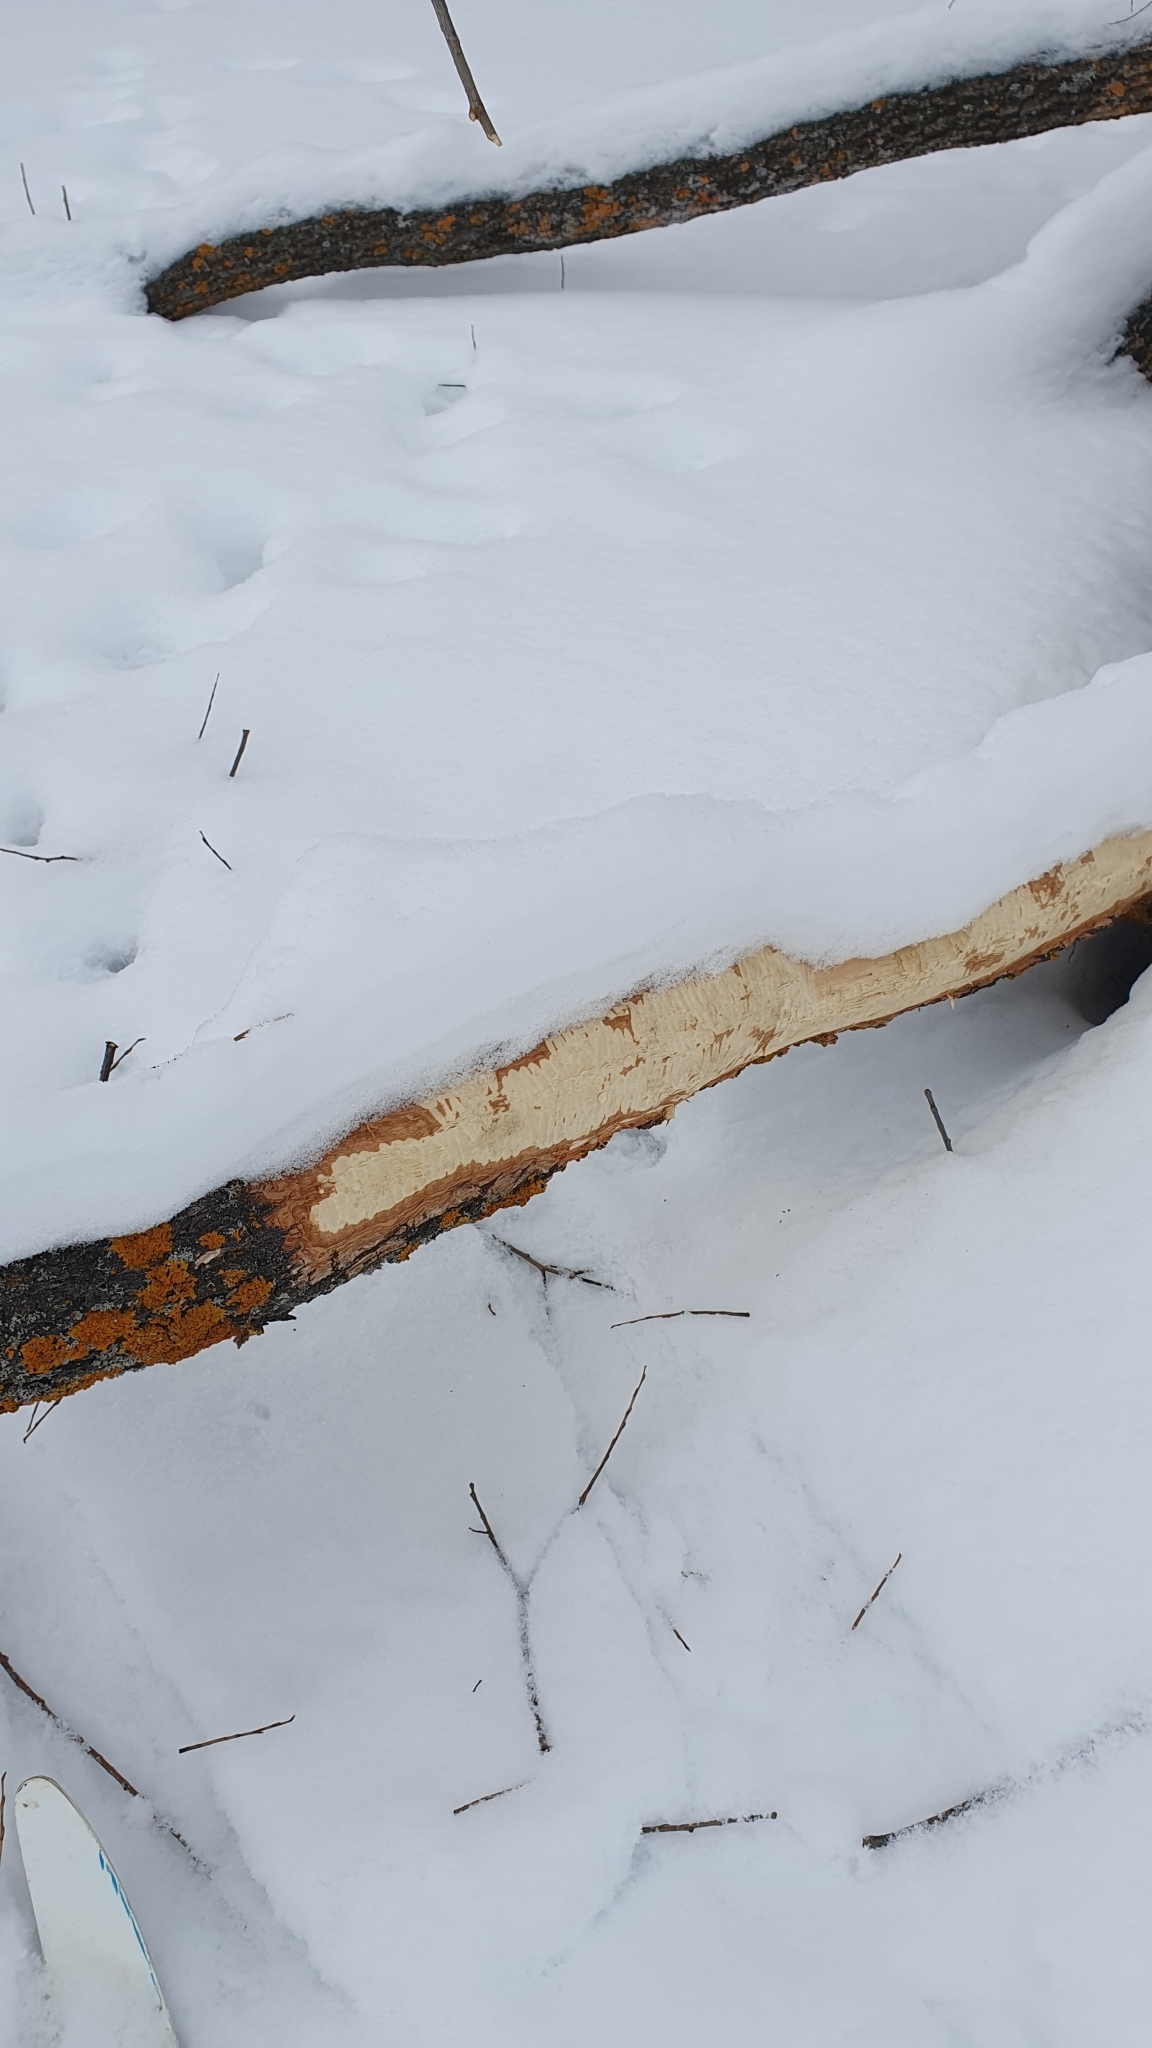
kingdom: Animalia
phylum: Chordata
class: Mammalia
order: Rodentia
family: Castoridae
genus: Castor
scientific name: Castor fiber
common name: Eurasian beaver
